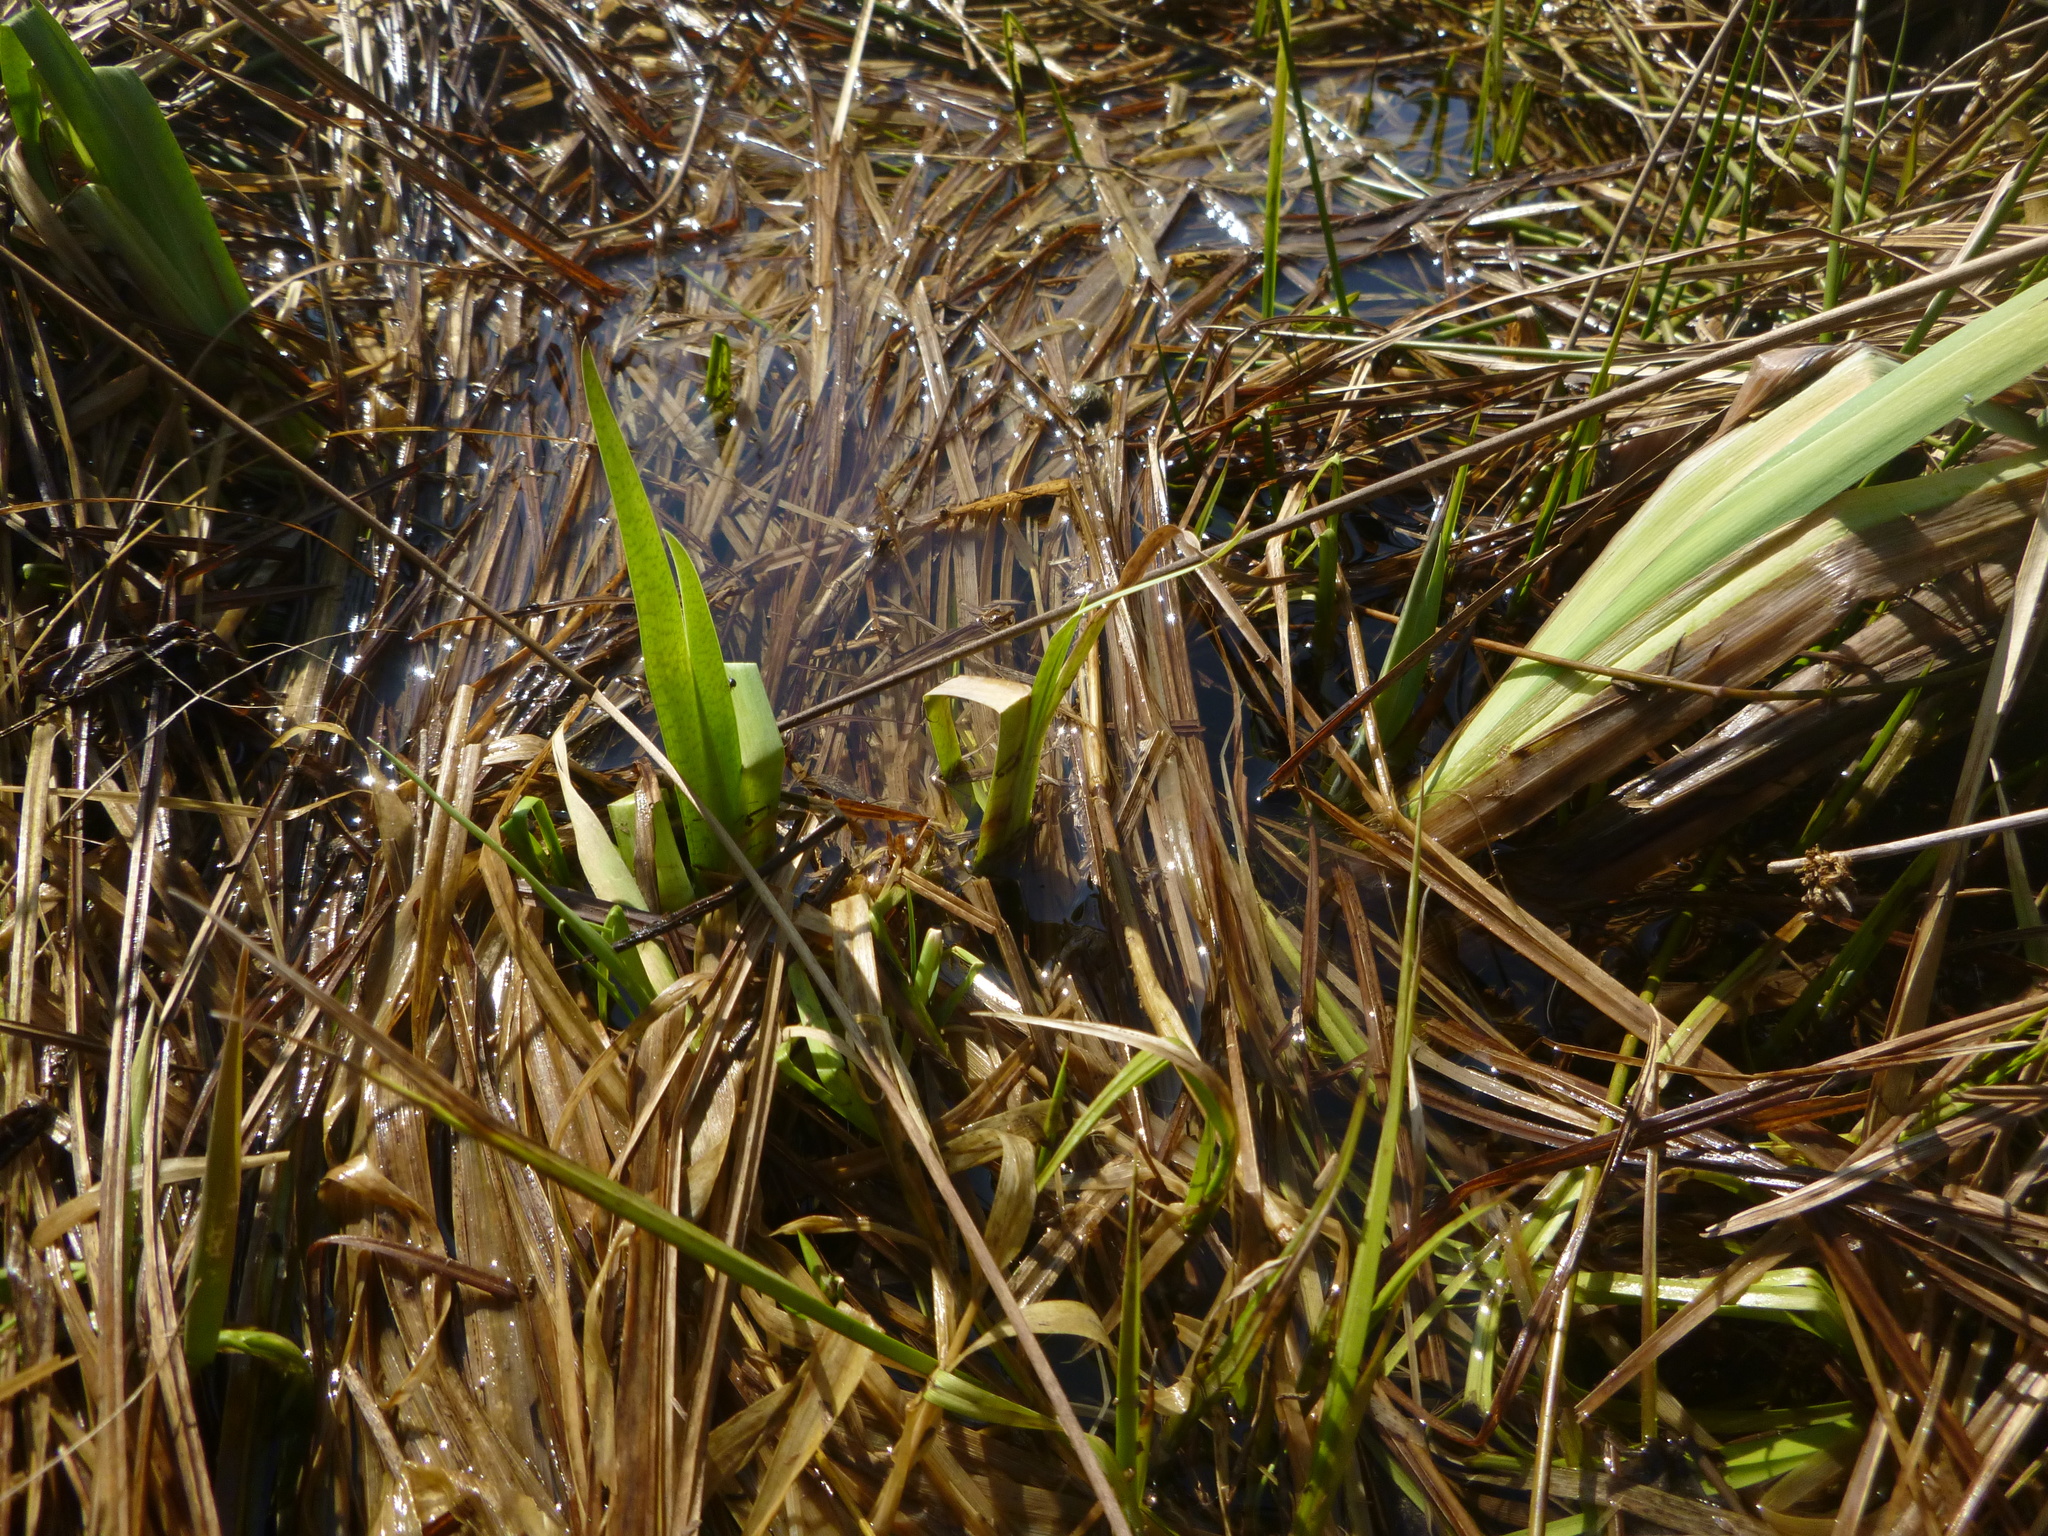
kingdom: Plantae
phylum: Tracheophyta
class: Liliopsida
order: Asparagales
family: Iridaceae
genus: Iris
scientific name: Iris pseudacorus
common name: Yellow flag
